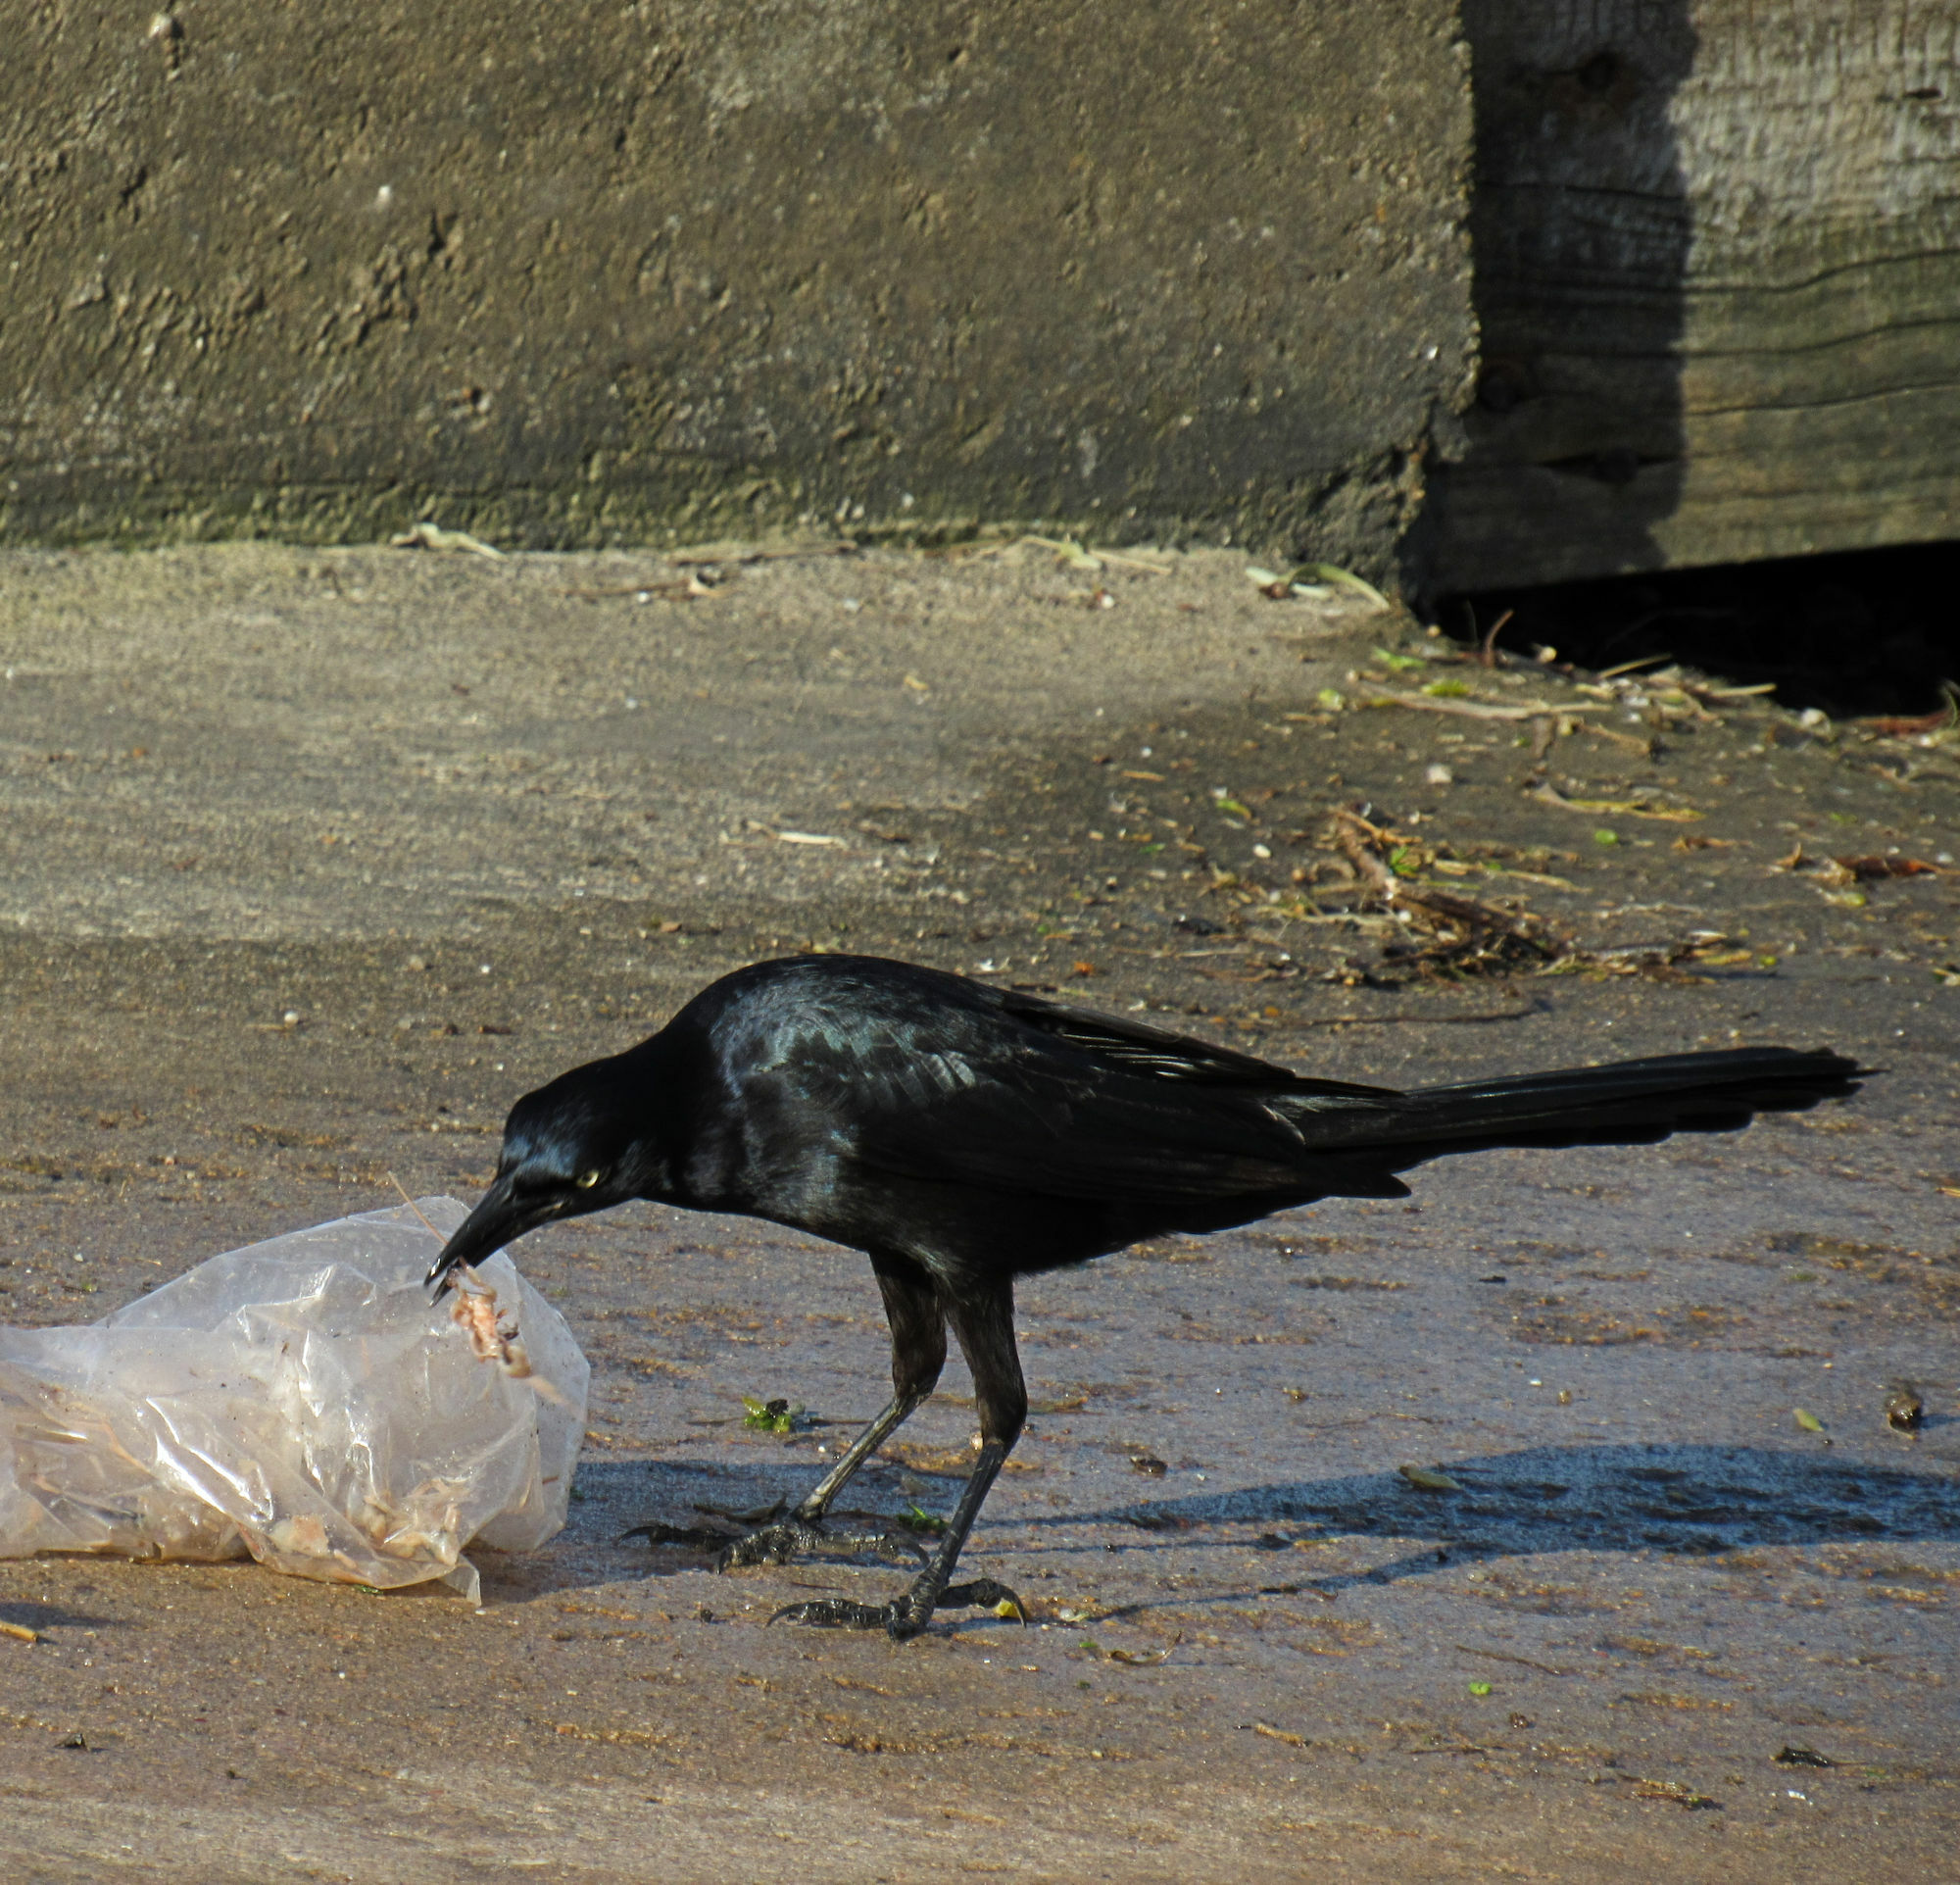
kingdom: Animalia
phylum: Chordata
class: Aves
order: Passeriformes
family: Icteridae
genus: Quiscalus
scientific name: Quiscalus mexicanus
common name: Great-tailed grackle
